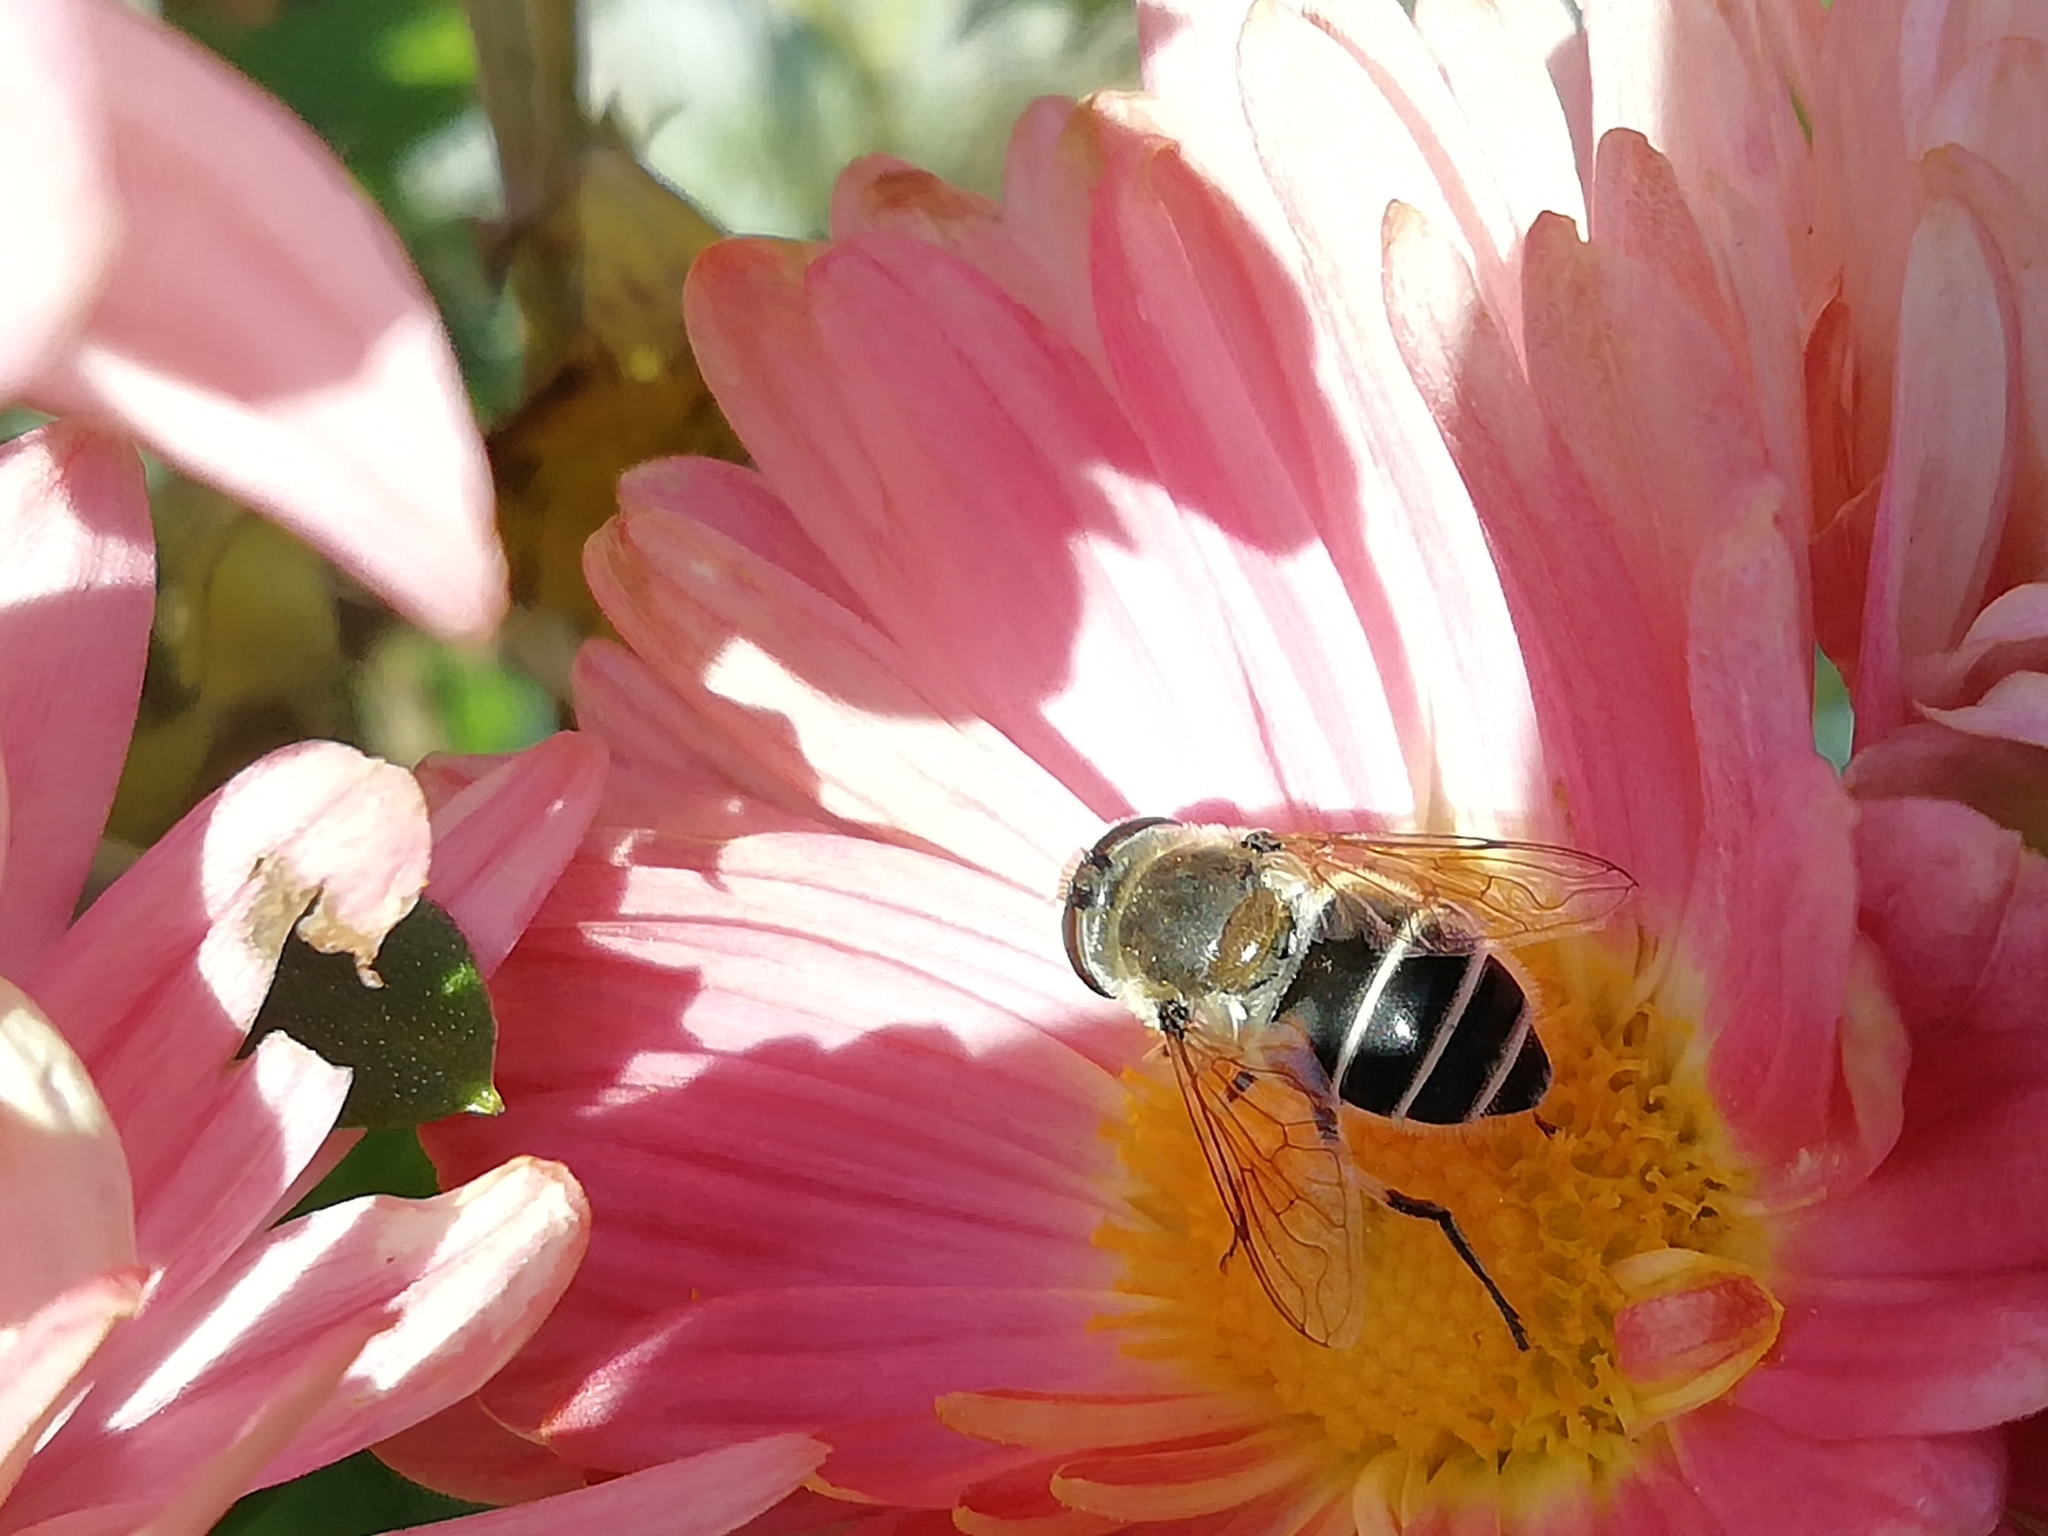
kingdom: Animalia
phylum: Arthropoda
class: Insecta
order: Diptera
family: Syrphidae
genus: Eristalis
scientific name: Eristalis arbustorum
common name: Hover fly
